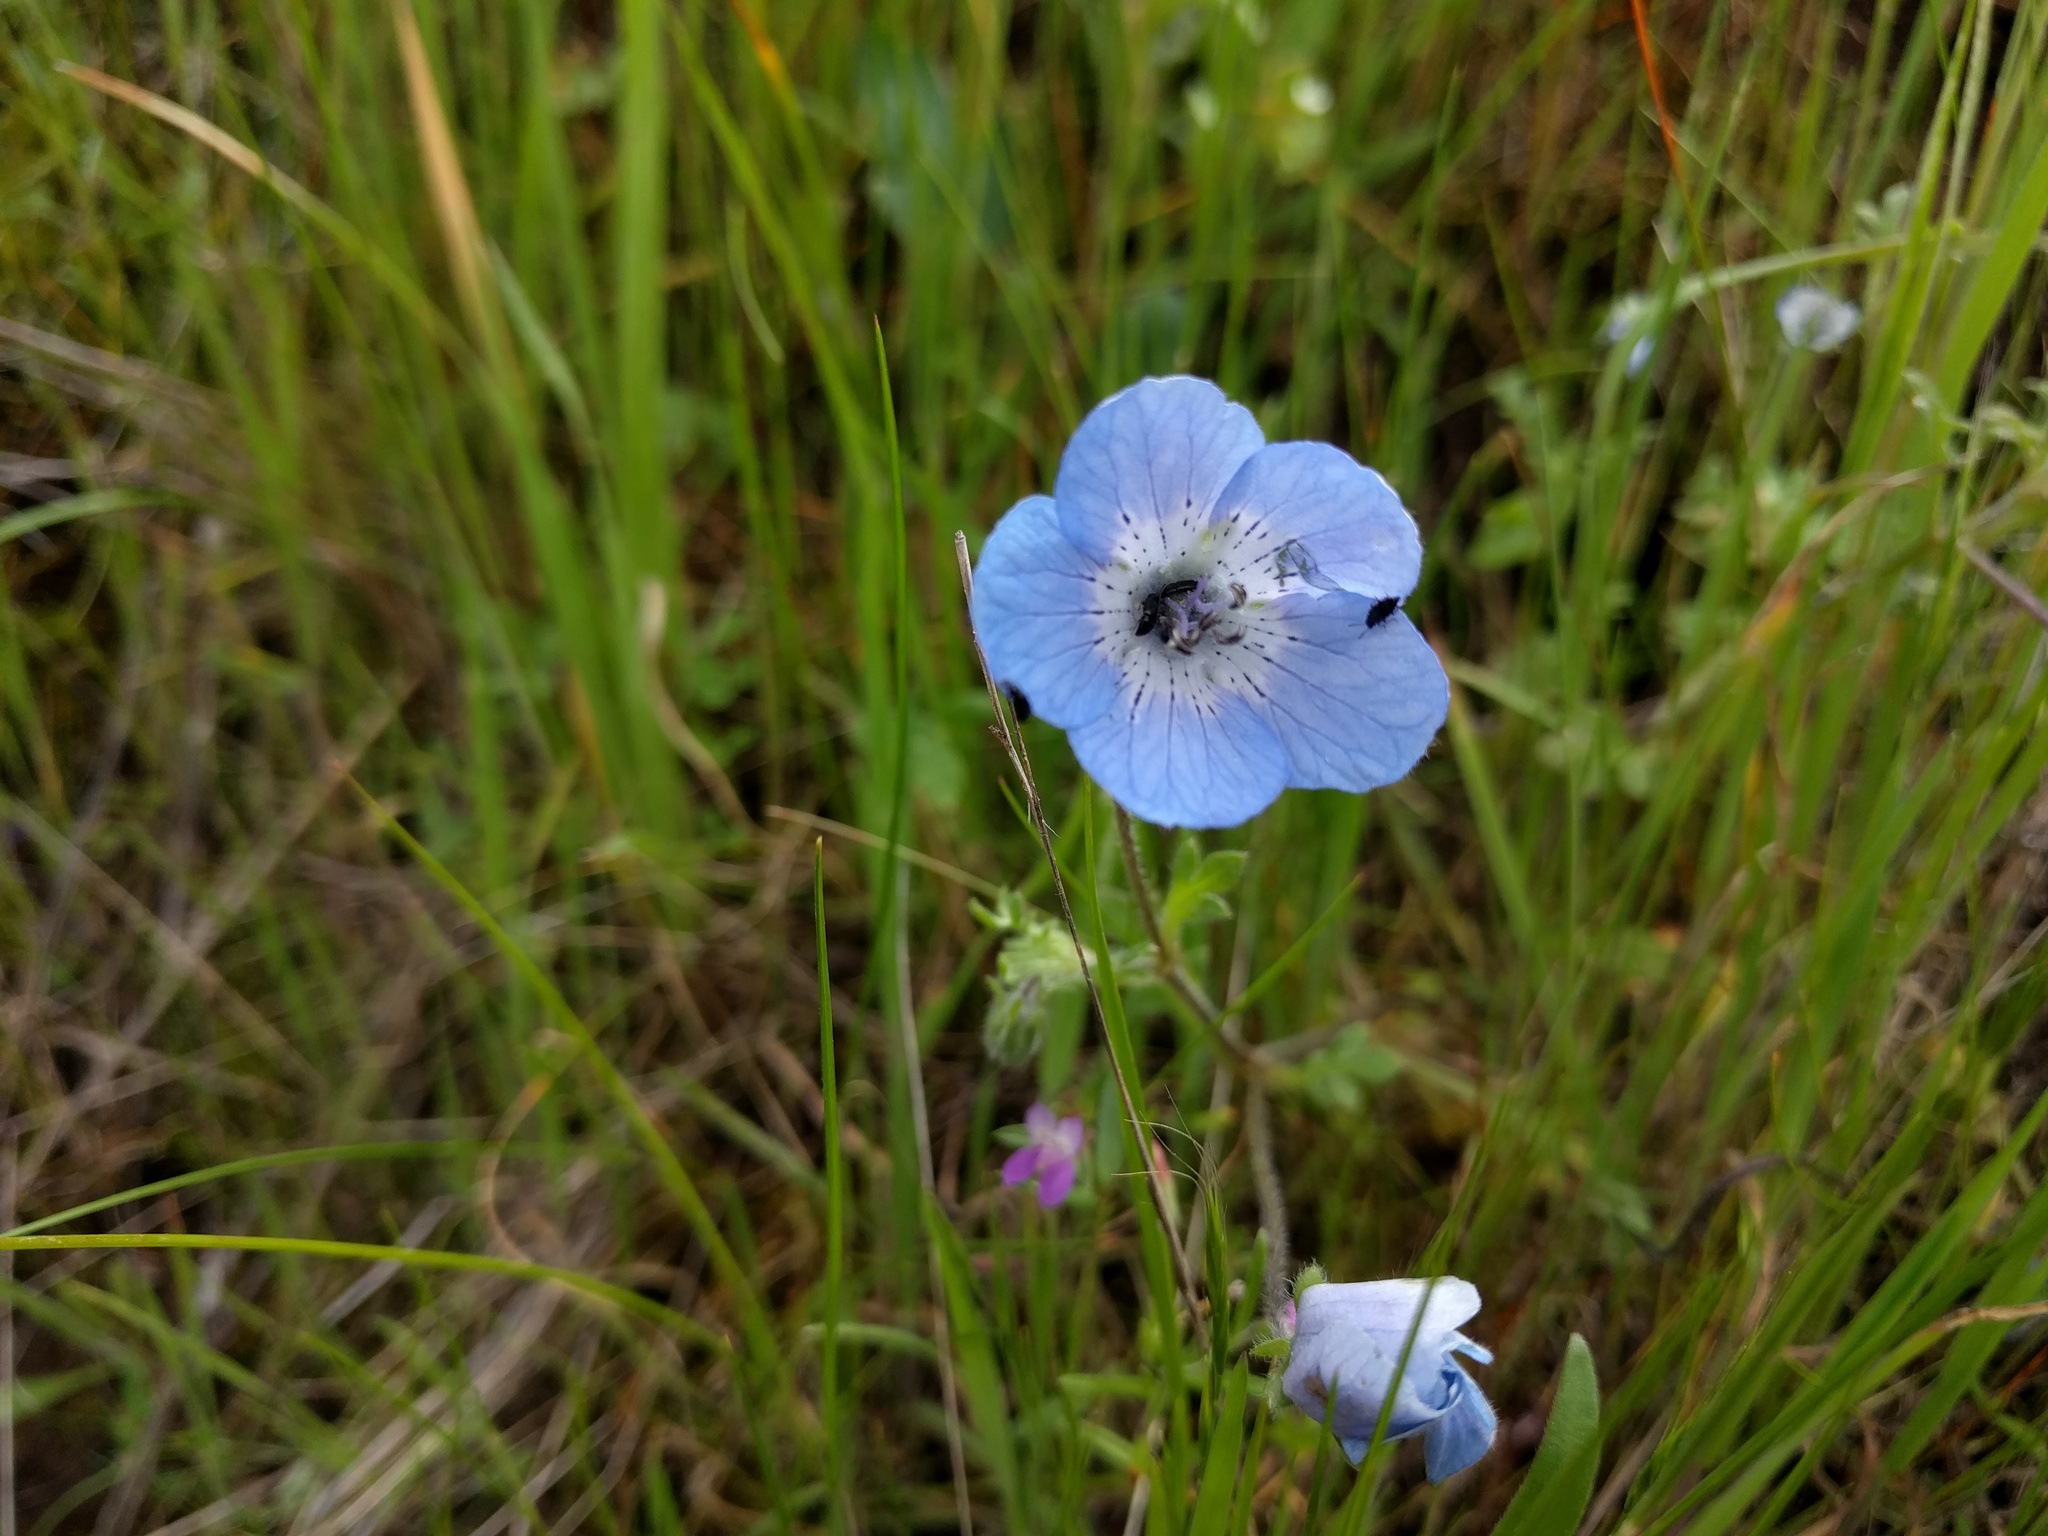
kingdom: Plantae
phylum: Tracheophyta
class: Magnoliopsida
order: Boraginales
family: Hydrophyllaceae
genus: Nemophila
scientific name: Nemophila menziesii
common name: Baby's-blue-eyes
